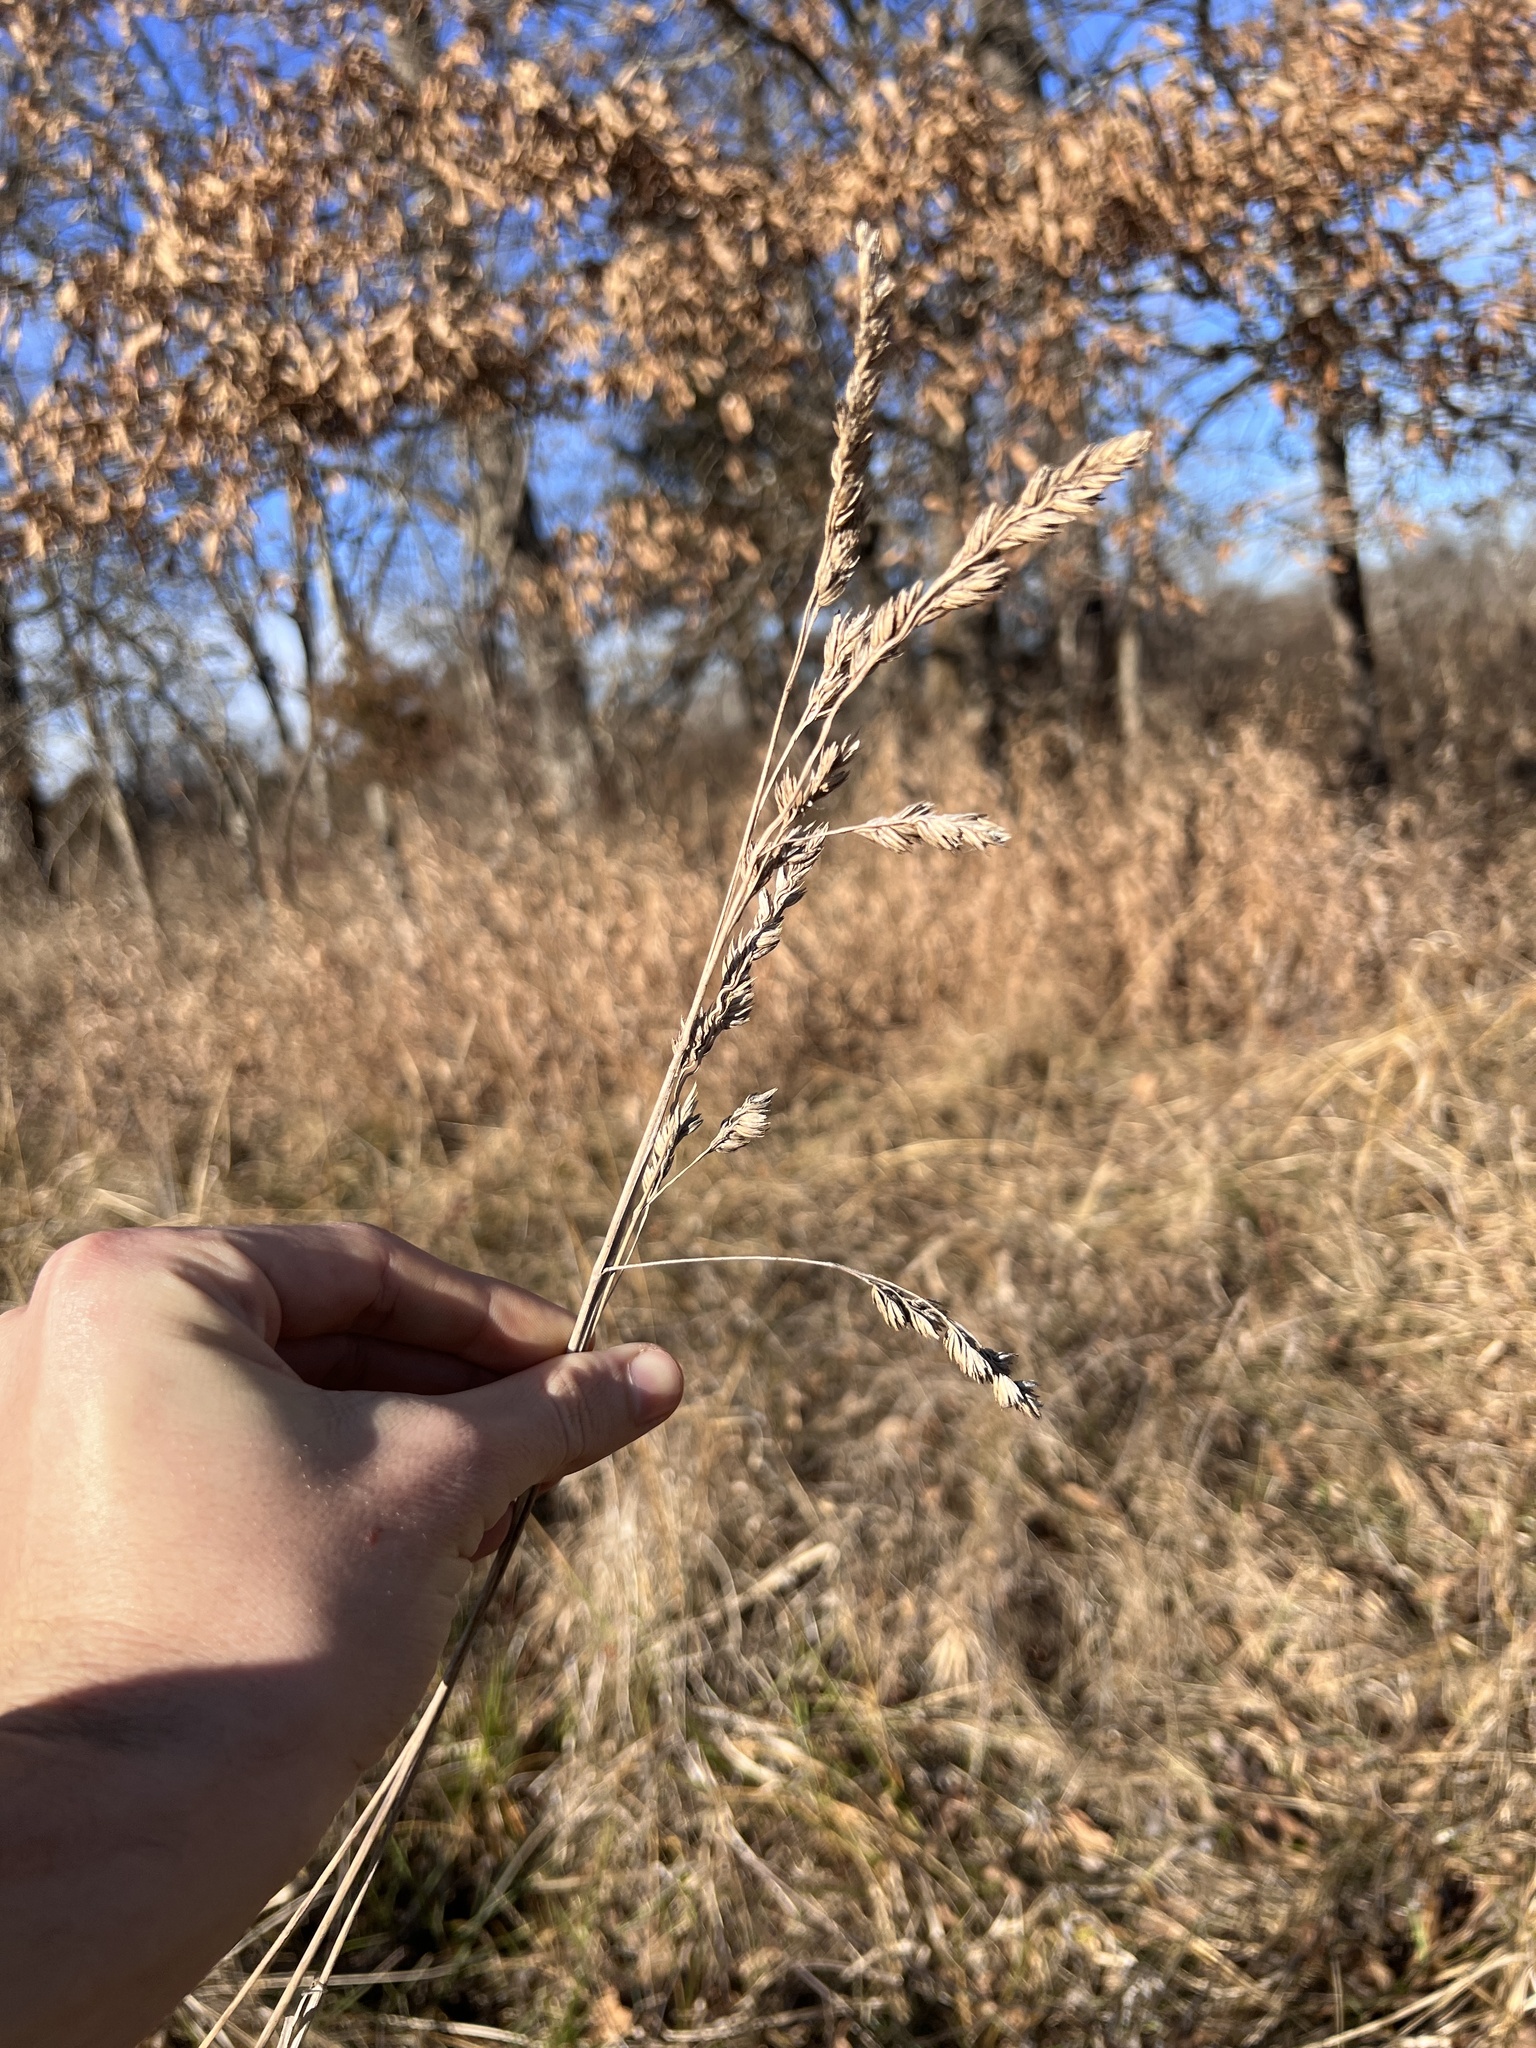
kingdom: Plantae
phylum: Tracheophyta
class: Liliopsida
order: Poales
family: Poaceae
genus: Dactylis
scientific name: Dactylis glomerata
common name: Orchardgrass
